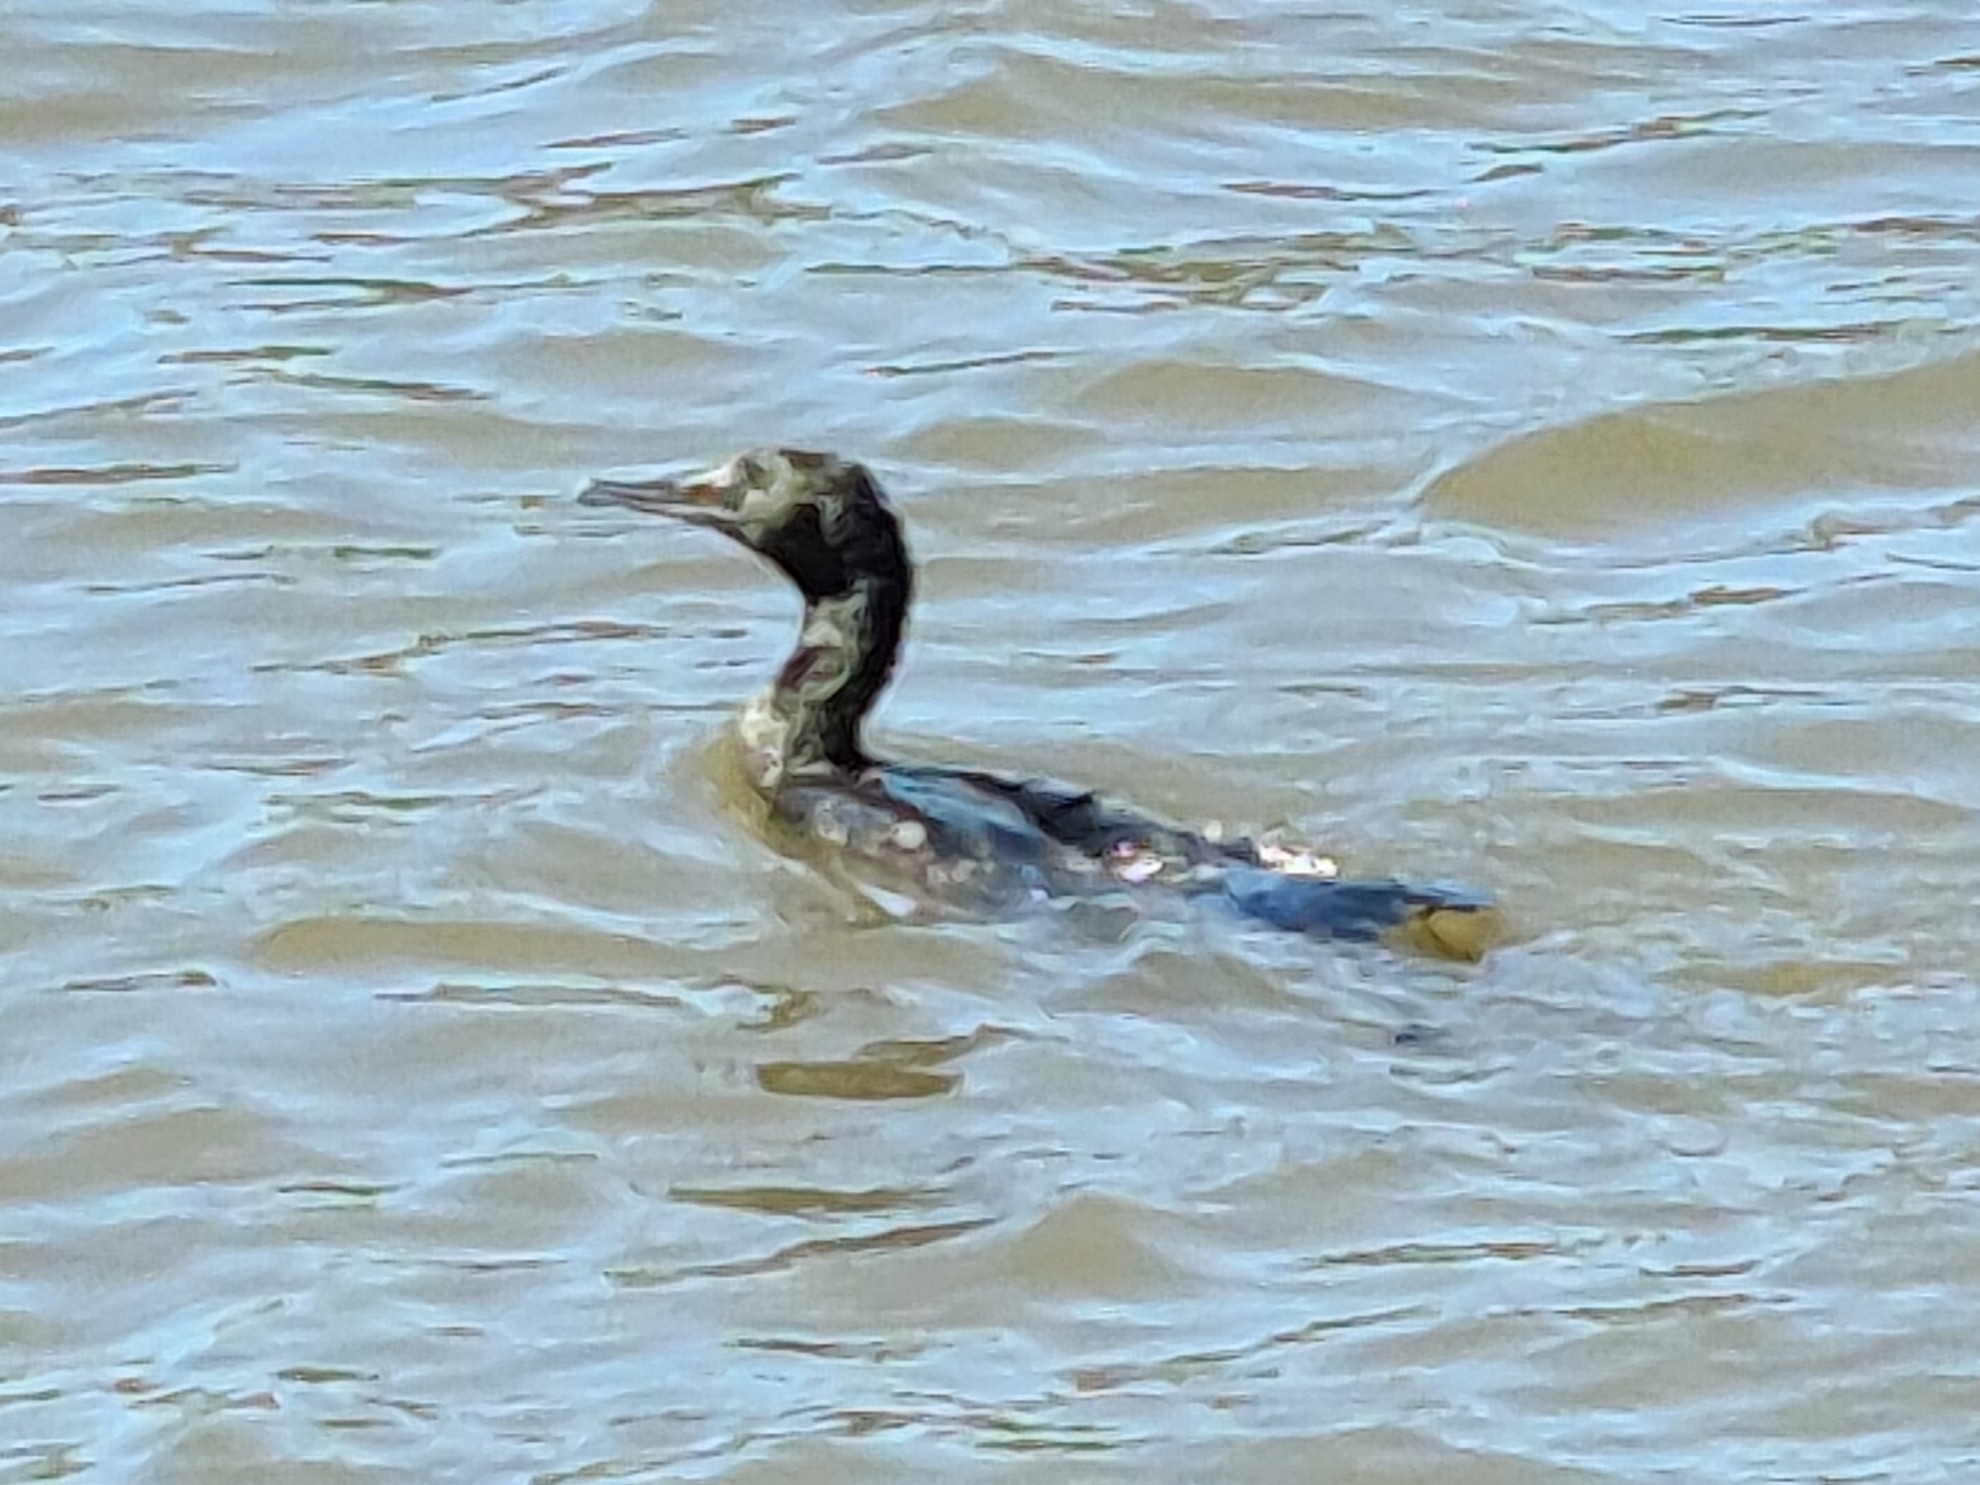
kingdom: Animalia
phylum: Chordata
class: Aves
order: Suliformes
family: Phalacrocoracidae
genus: Phalacrocorax
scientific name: Phalacrocorax sulcirostris
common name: Little black cormorant
